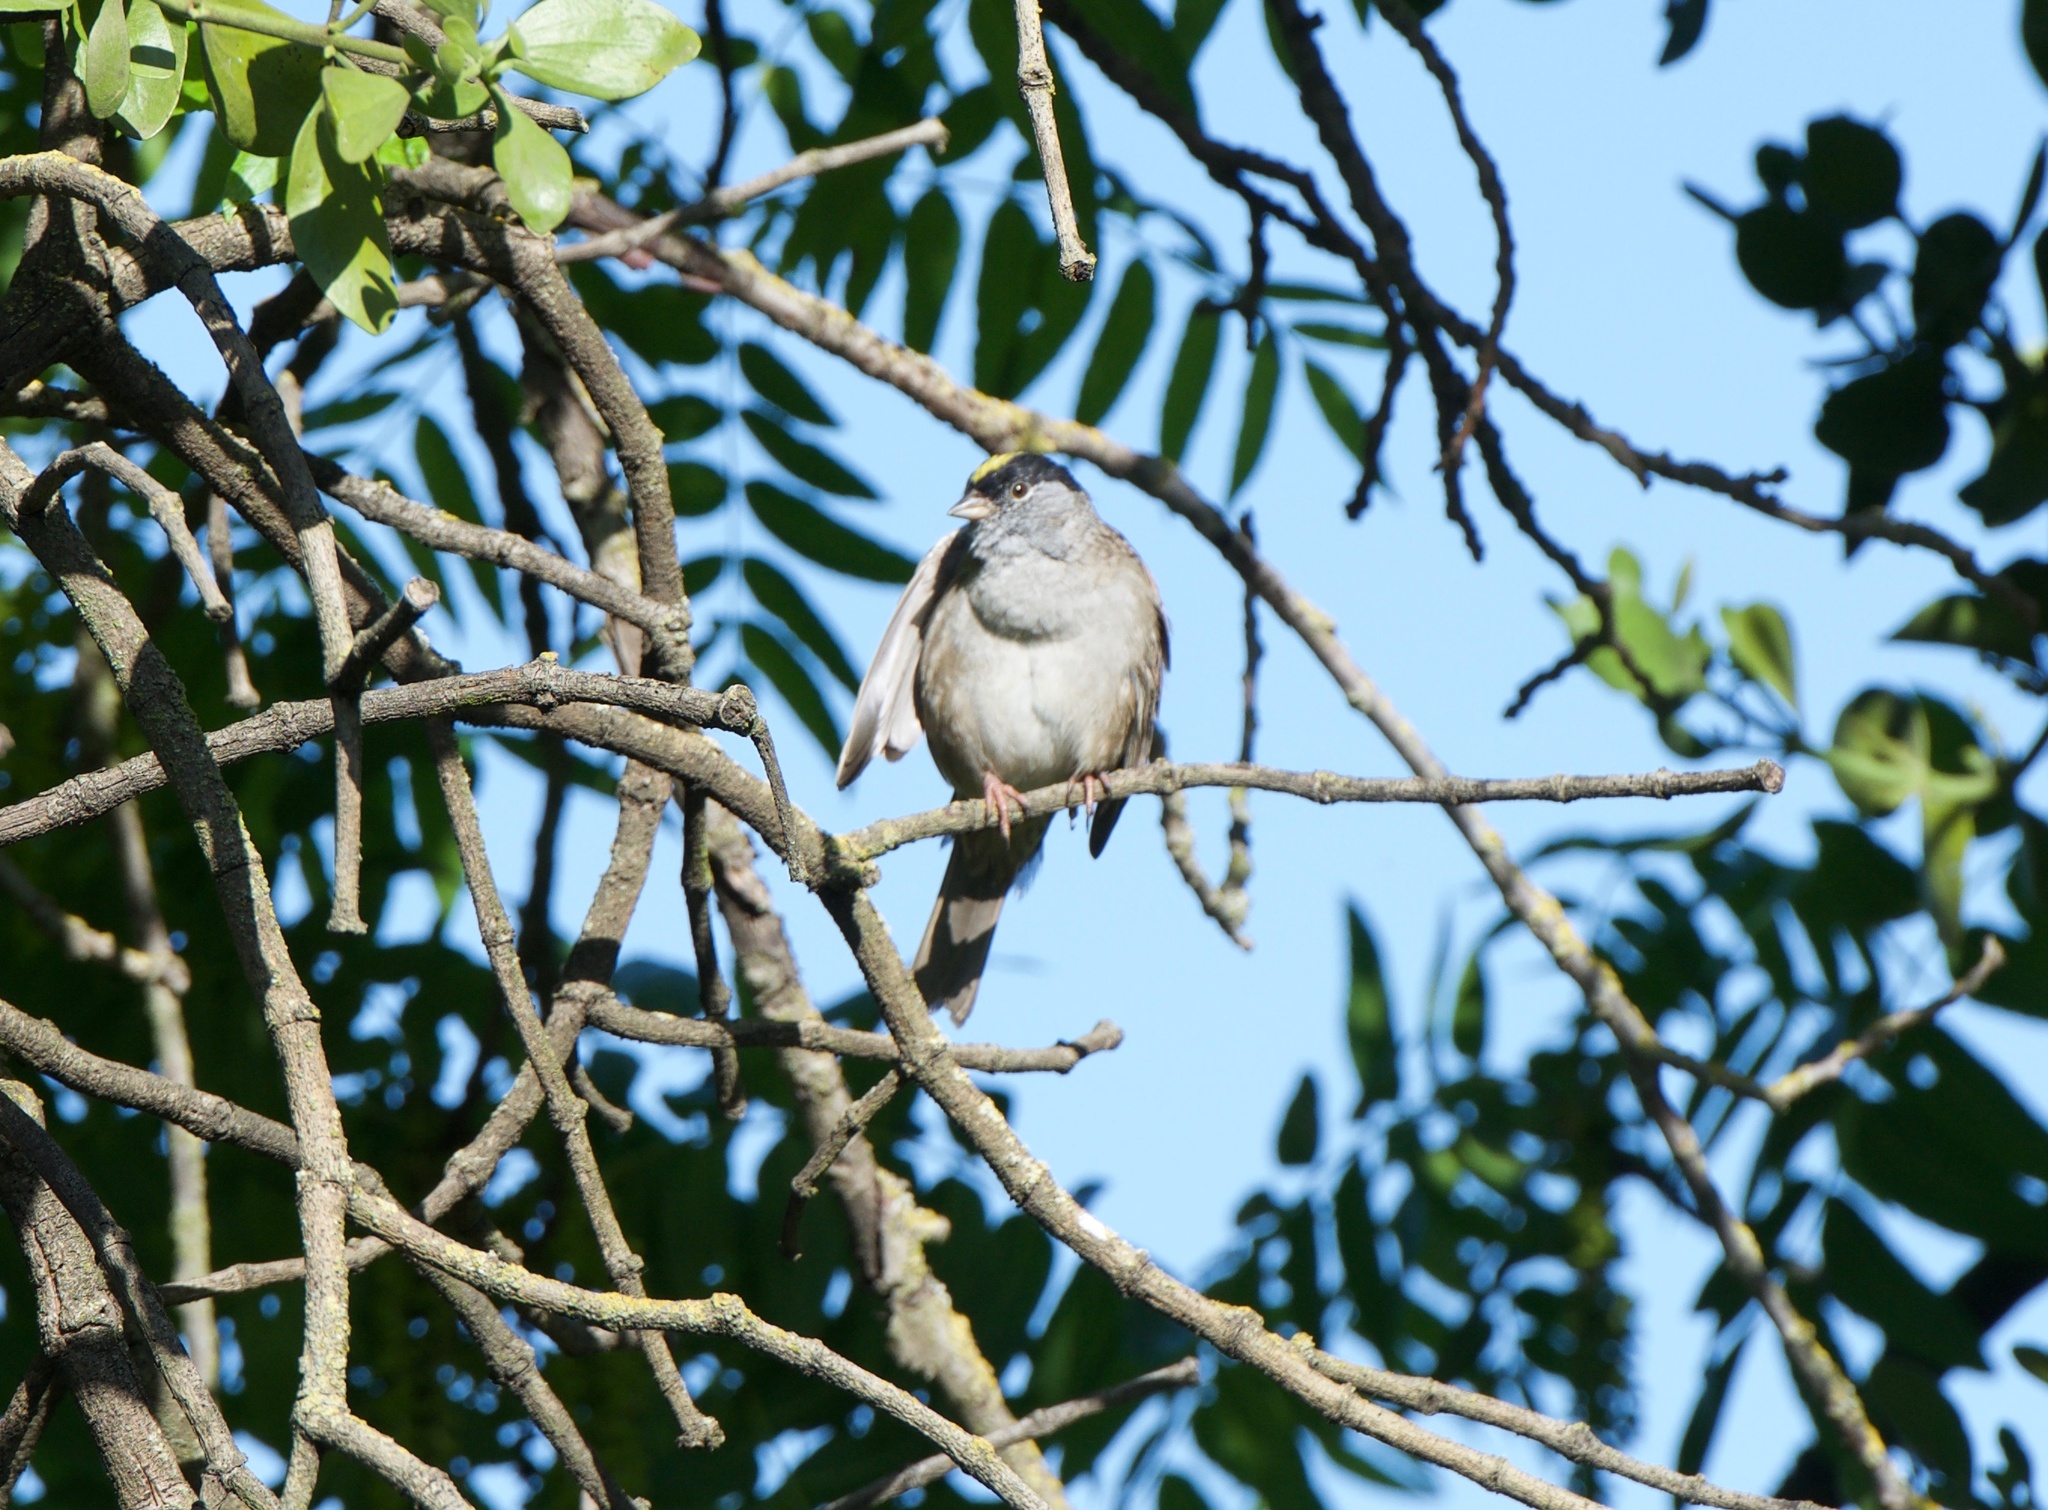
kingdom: Animalia
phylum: Chordata
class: Aves
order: Passeriformes
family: Passerellidae
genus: Zonotrichia
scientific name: Zonotrichia atricapilla
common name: Golden-crowned sparrow
